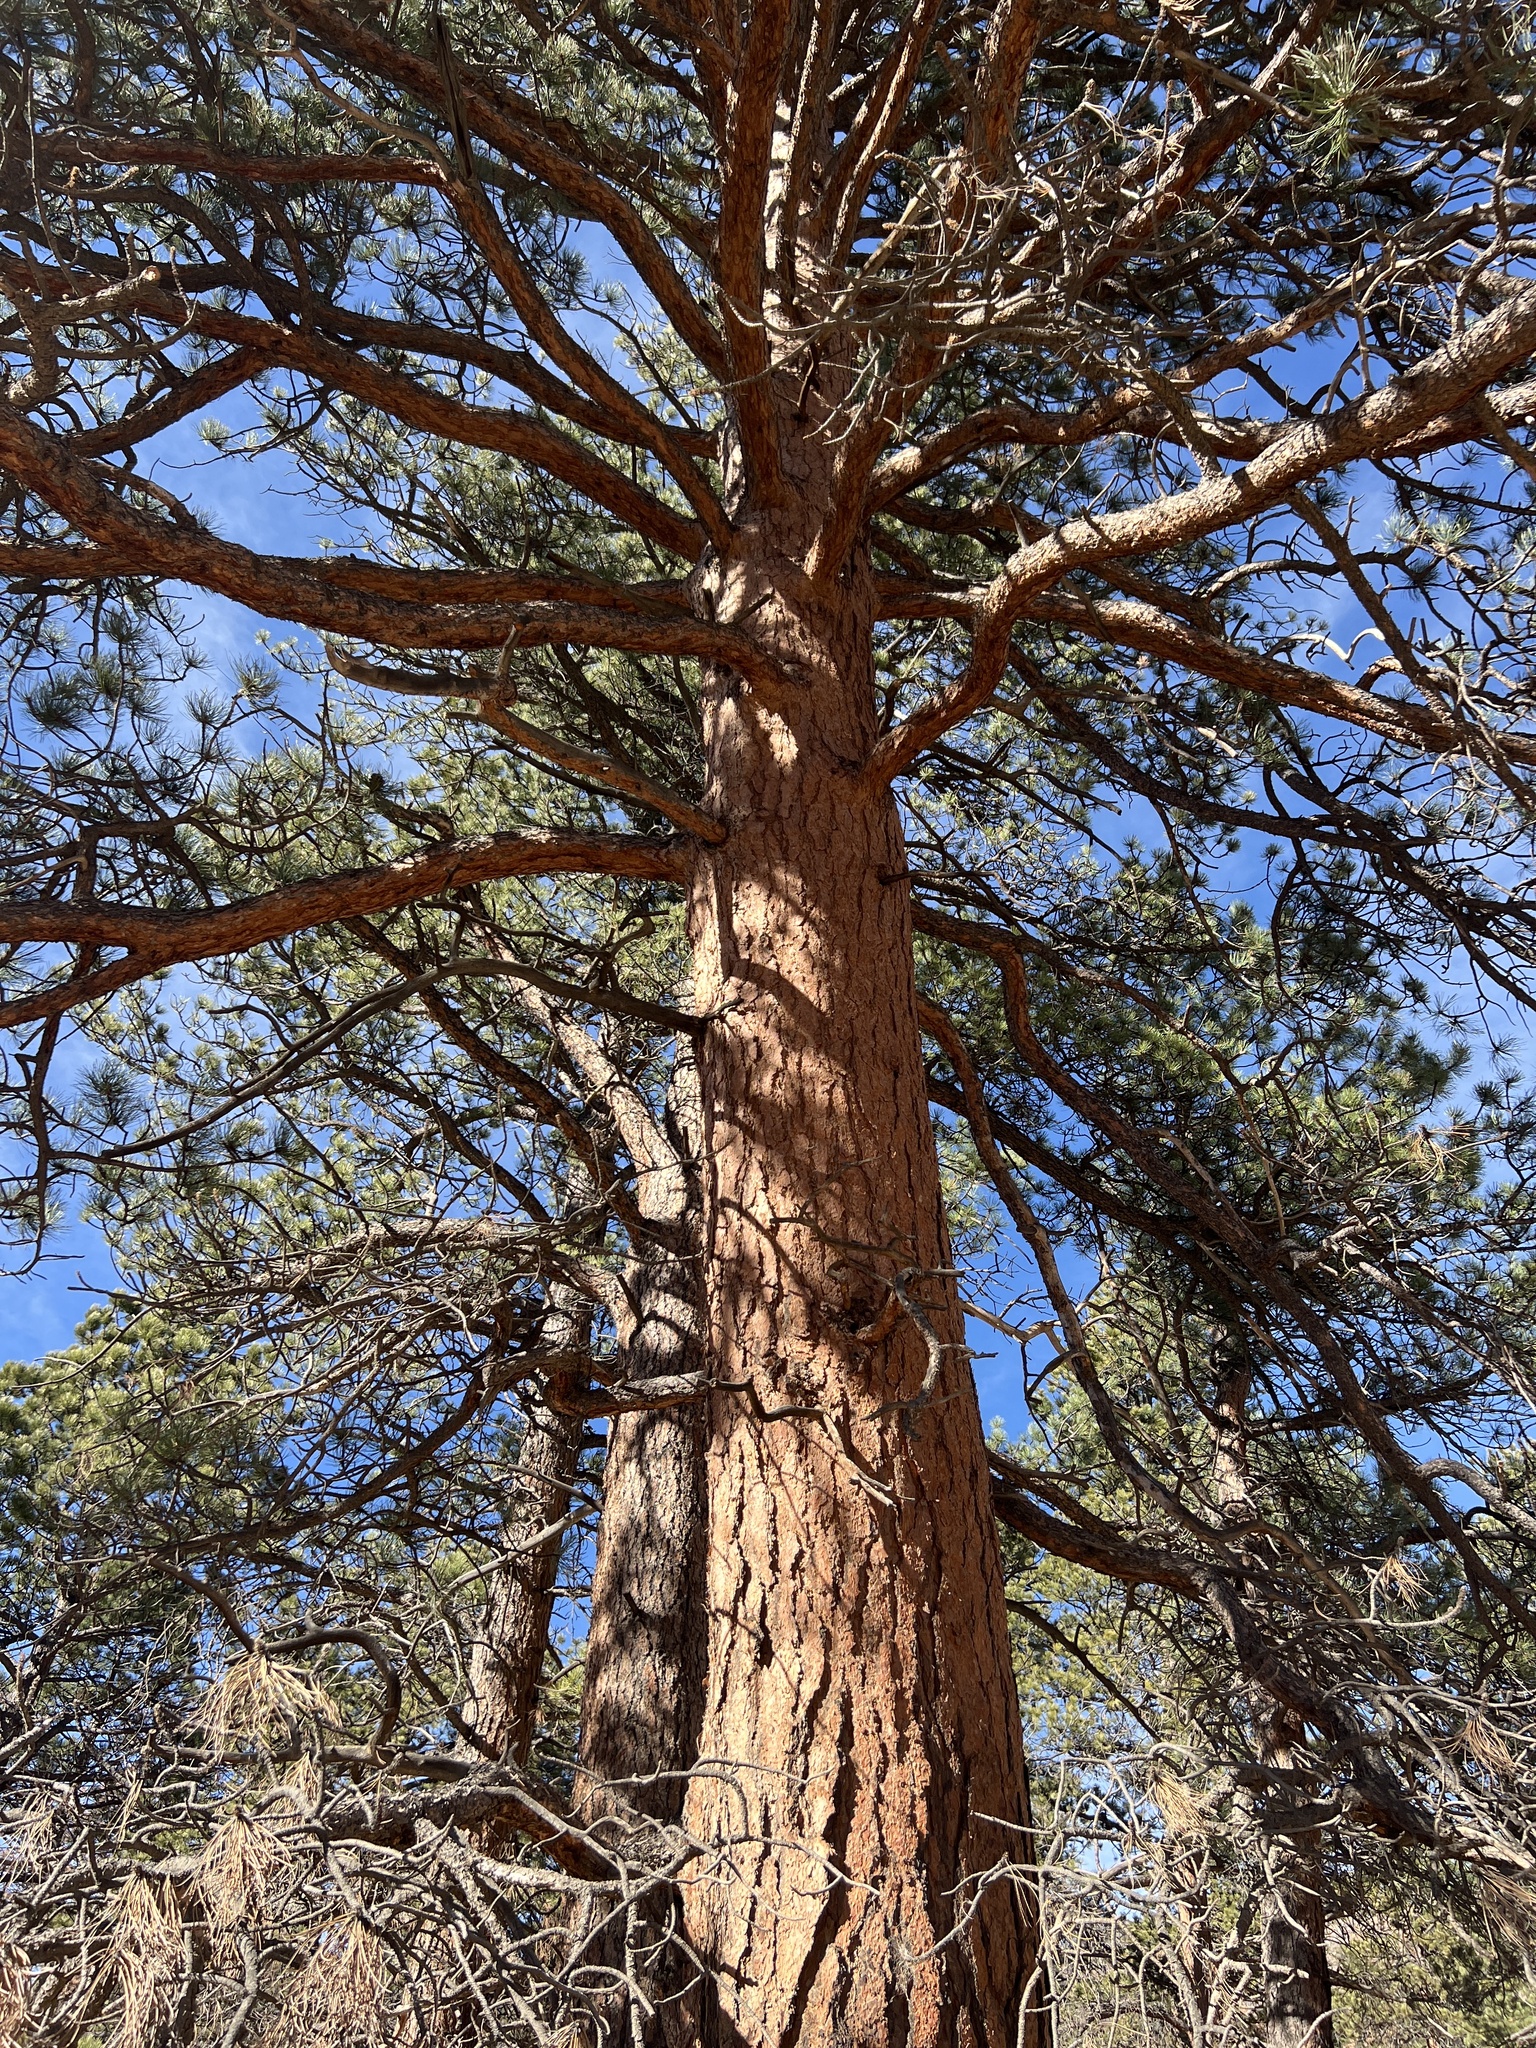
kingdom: Plantae
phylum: Tracheophyta
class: Pinopsida
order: Pinales
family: Pinaceae
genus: Pinus
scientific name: Pinus ponderosa
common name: Western yellow-pine
